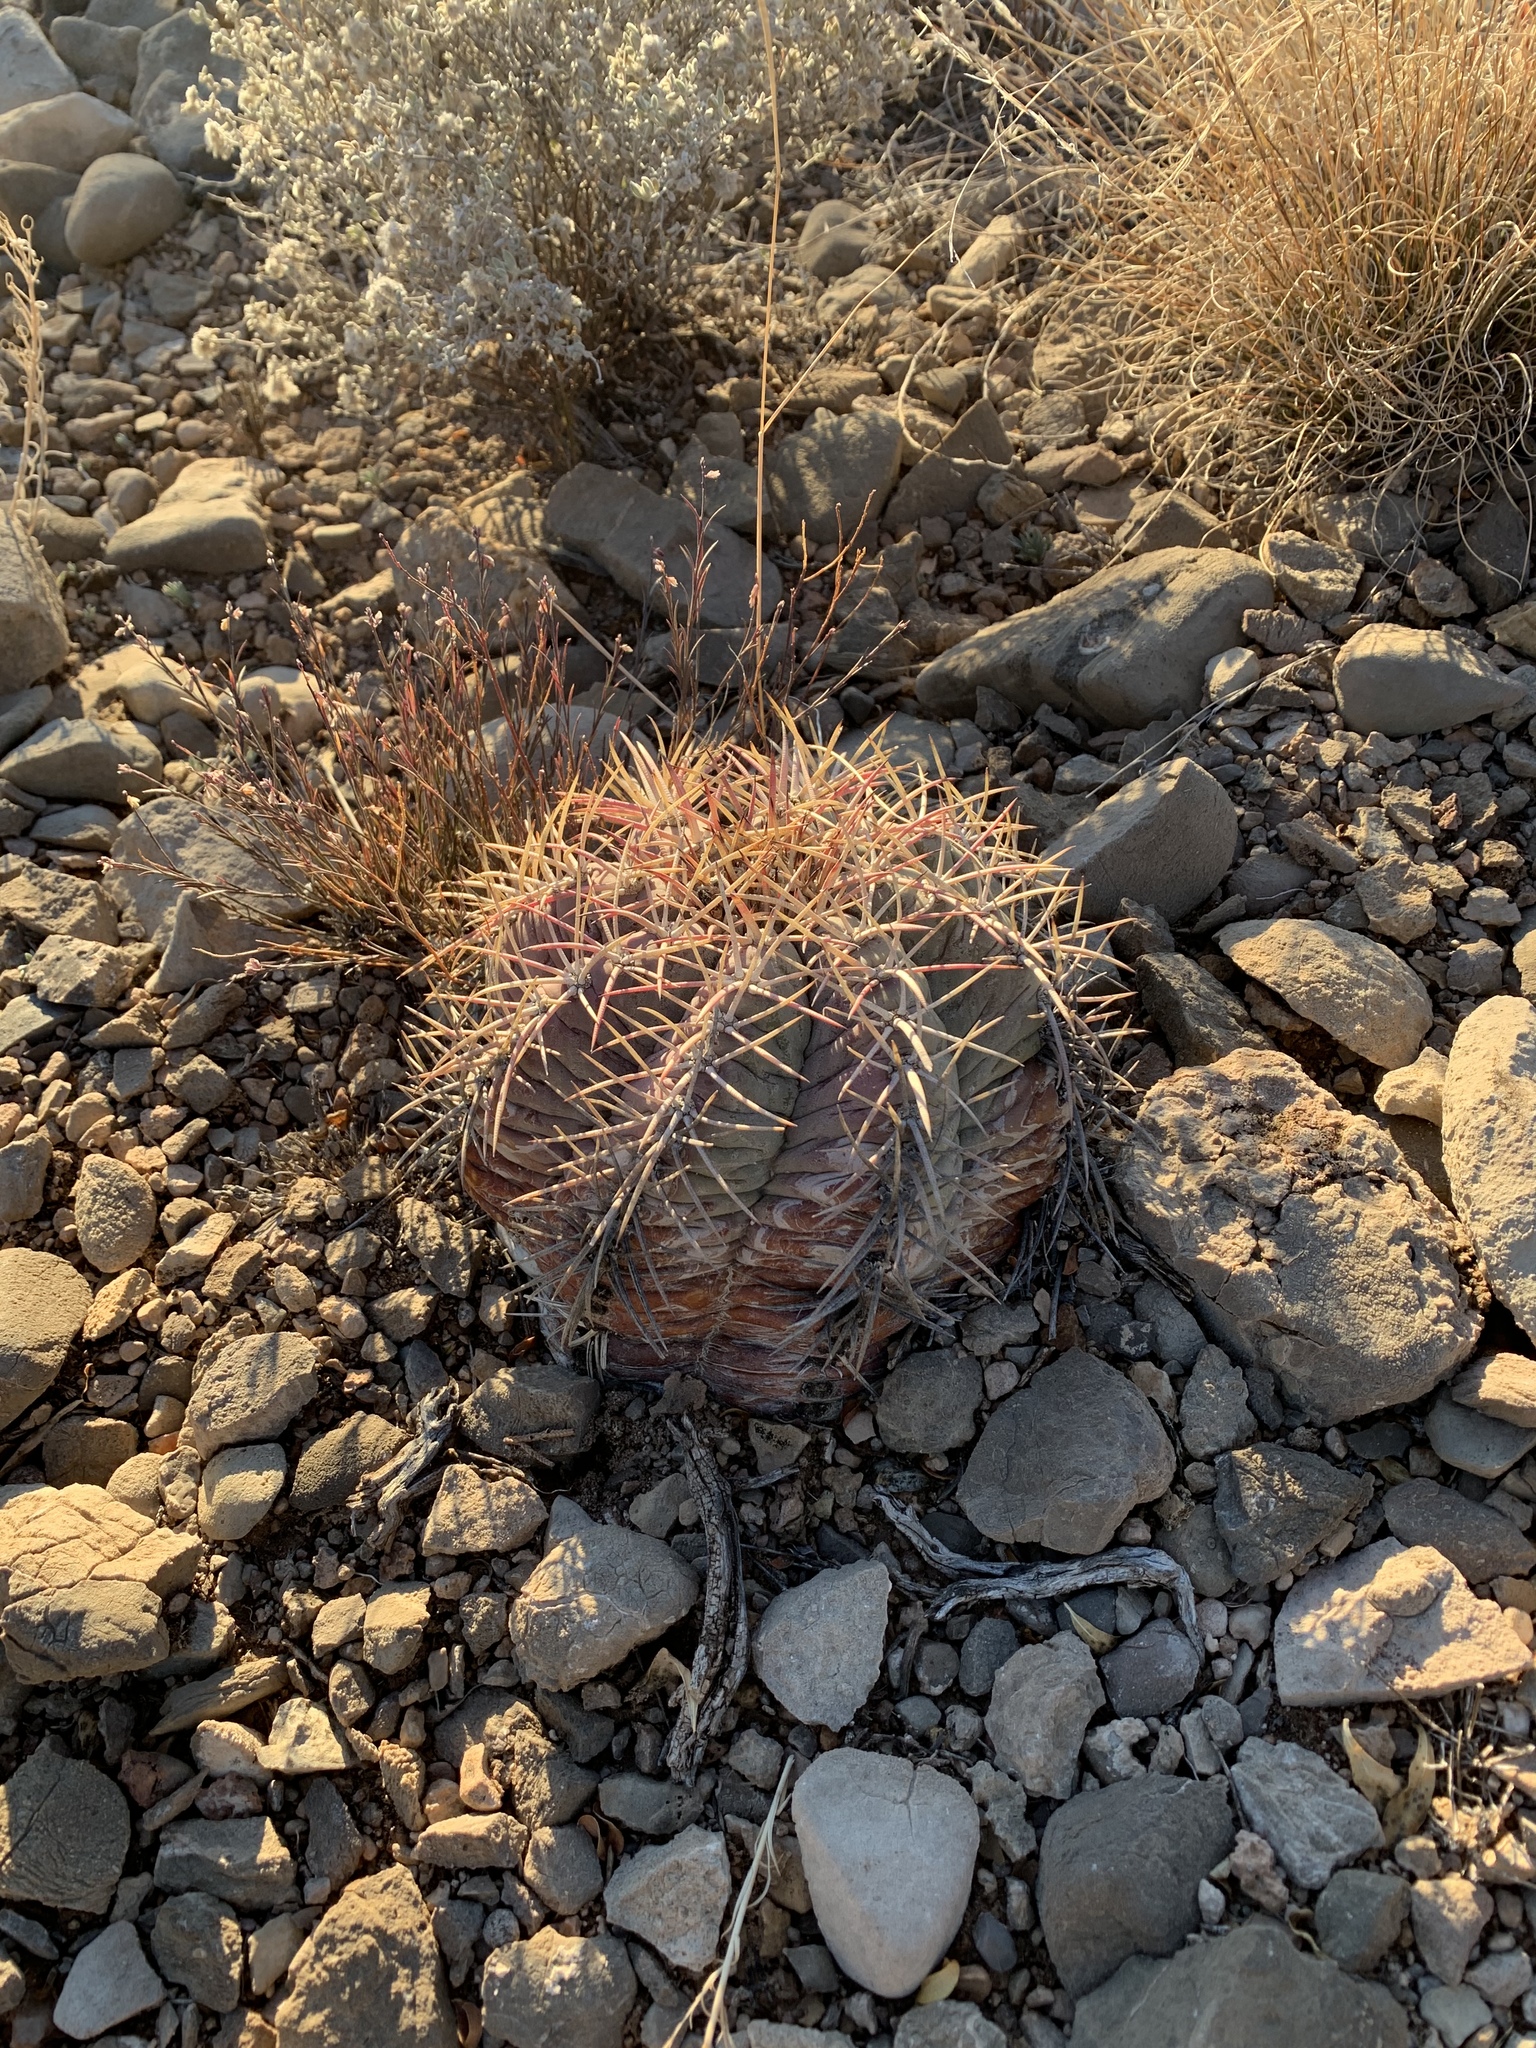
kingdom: Plantae
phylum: Tracheophyta
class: Magnoliopsida
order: Caryophyllales
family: Cactaceae
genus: Echinocactus
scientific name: Echinocactus horizonthalonius
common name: Devilshead
